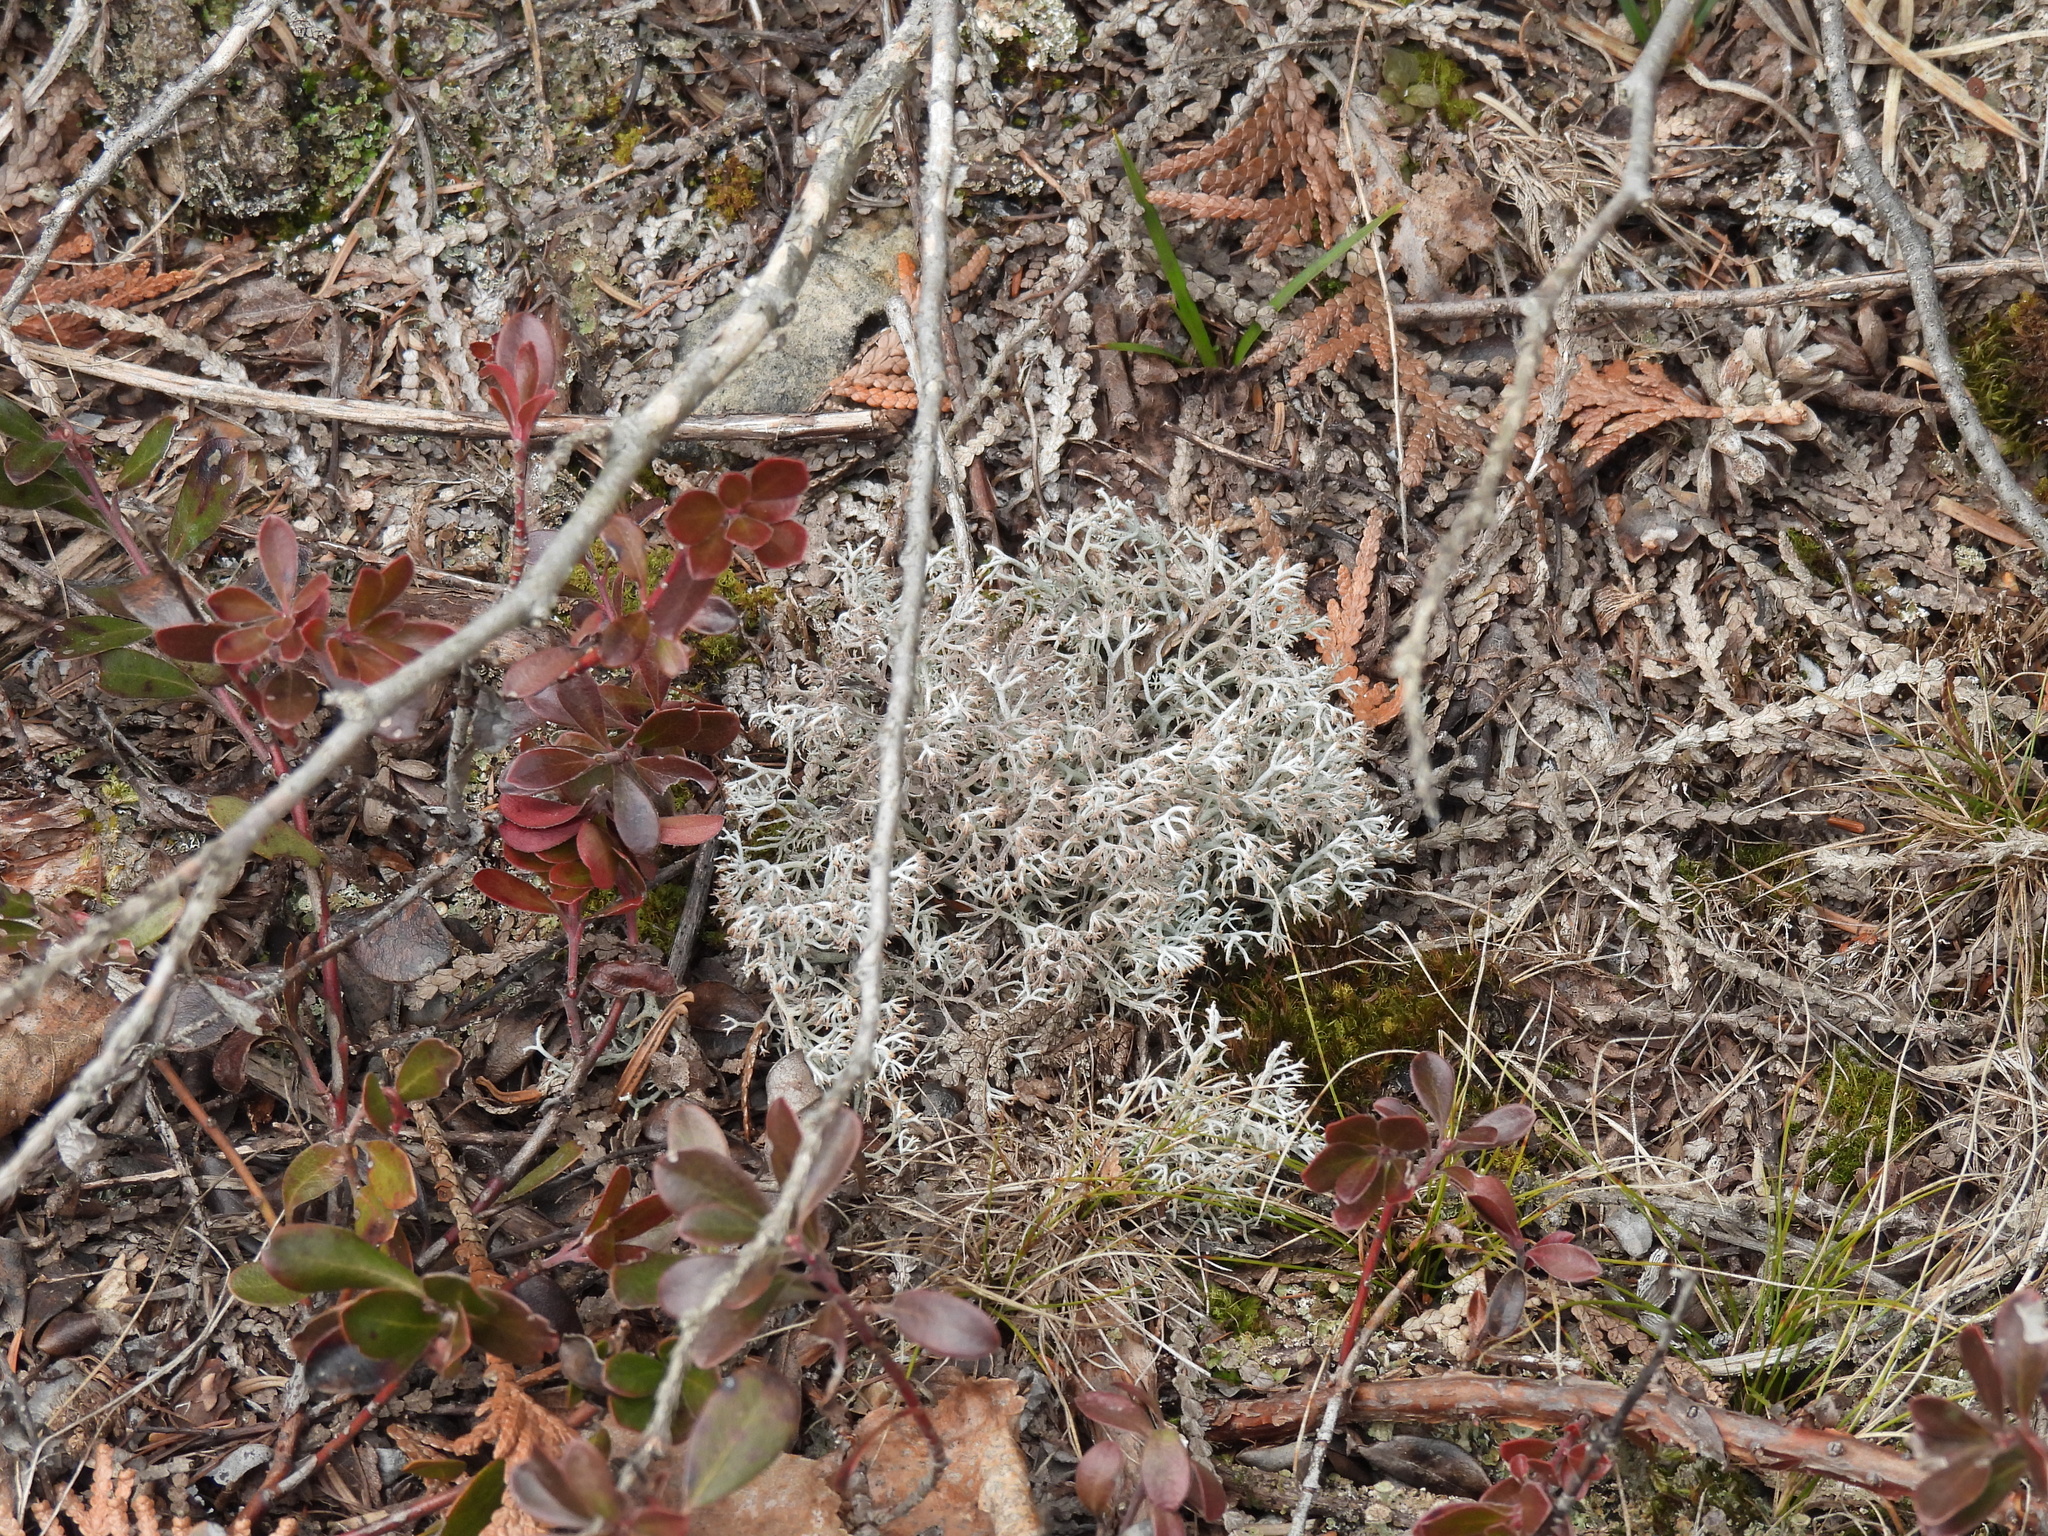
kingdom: Fungi
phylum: Ascomycota
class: Lecanoromycetes
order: Lecanorales
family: Cladoniaceae
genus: Cladonia
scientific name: Cladonia rangiferina
